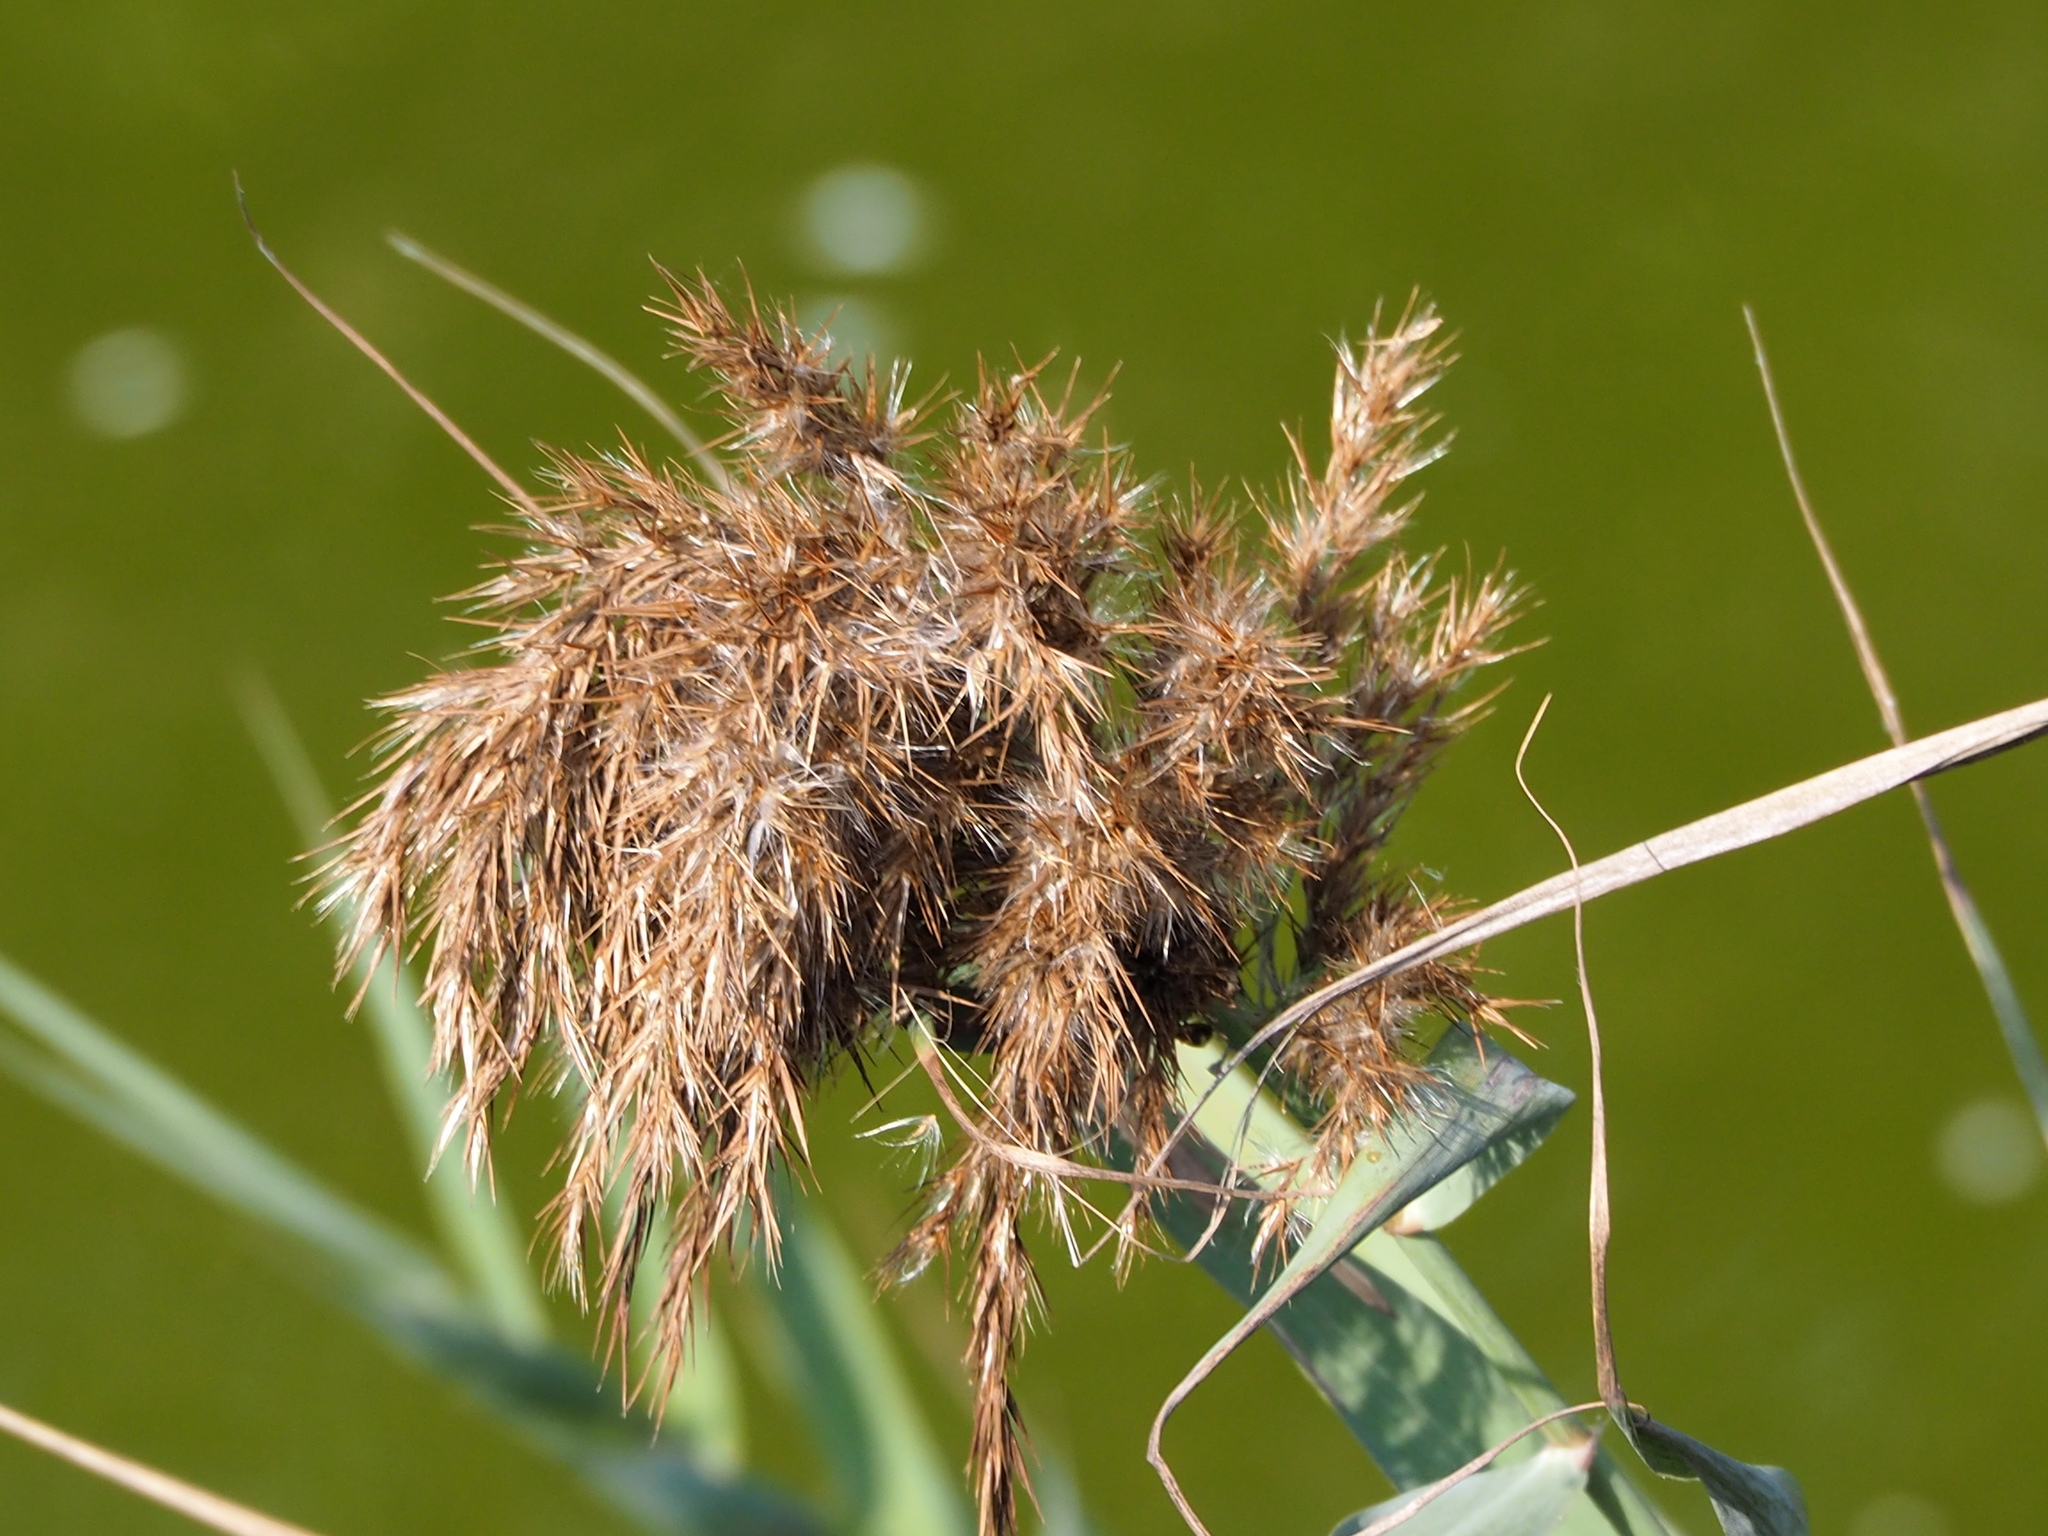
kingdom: Plantae
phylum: Tracheophyta
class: Liliopsida
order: Poales
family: Poaceae
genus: Phragmites
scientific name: Phragmites australis
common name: Common reed
